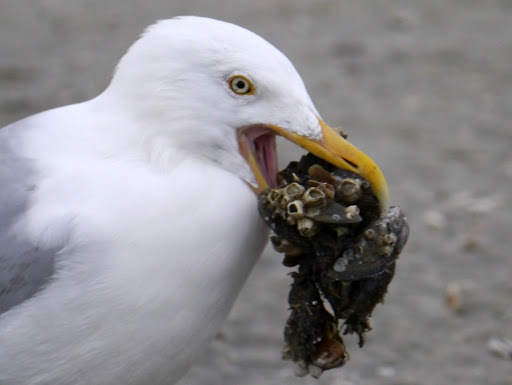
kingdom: Animalia
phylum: Chordata
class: Aves
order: Charadriiformes
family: Laridae
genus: Larus
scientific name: Larus argentatus
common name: Herring gull
